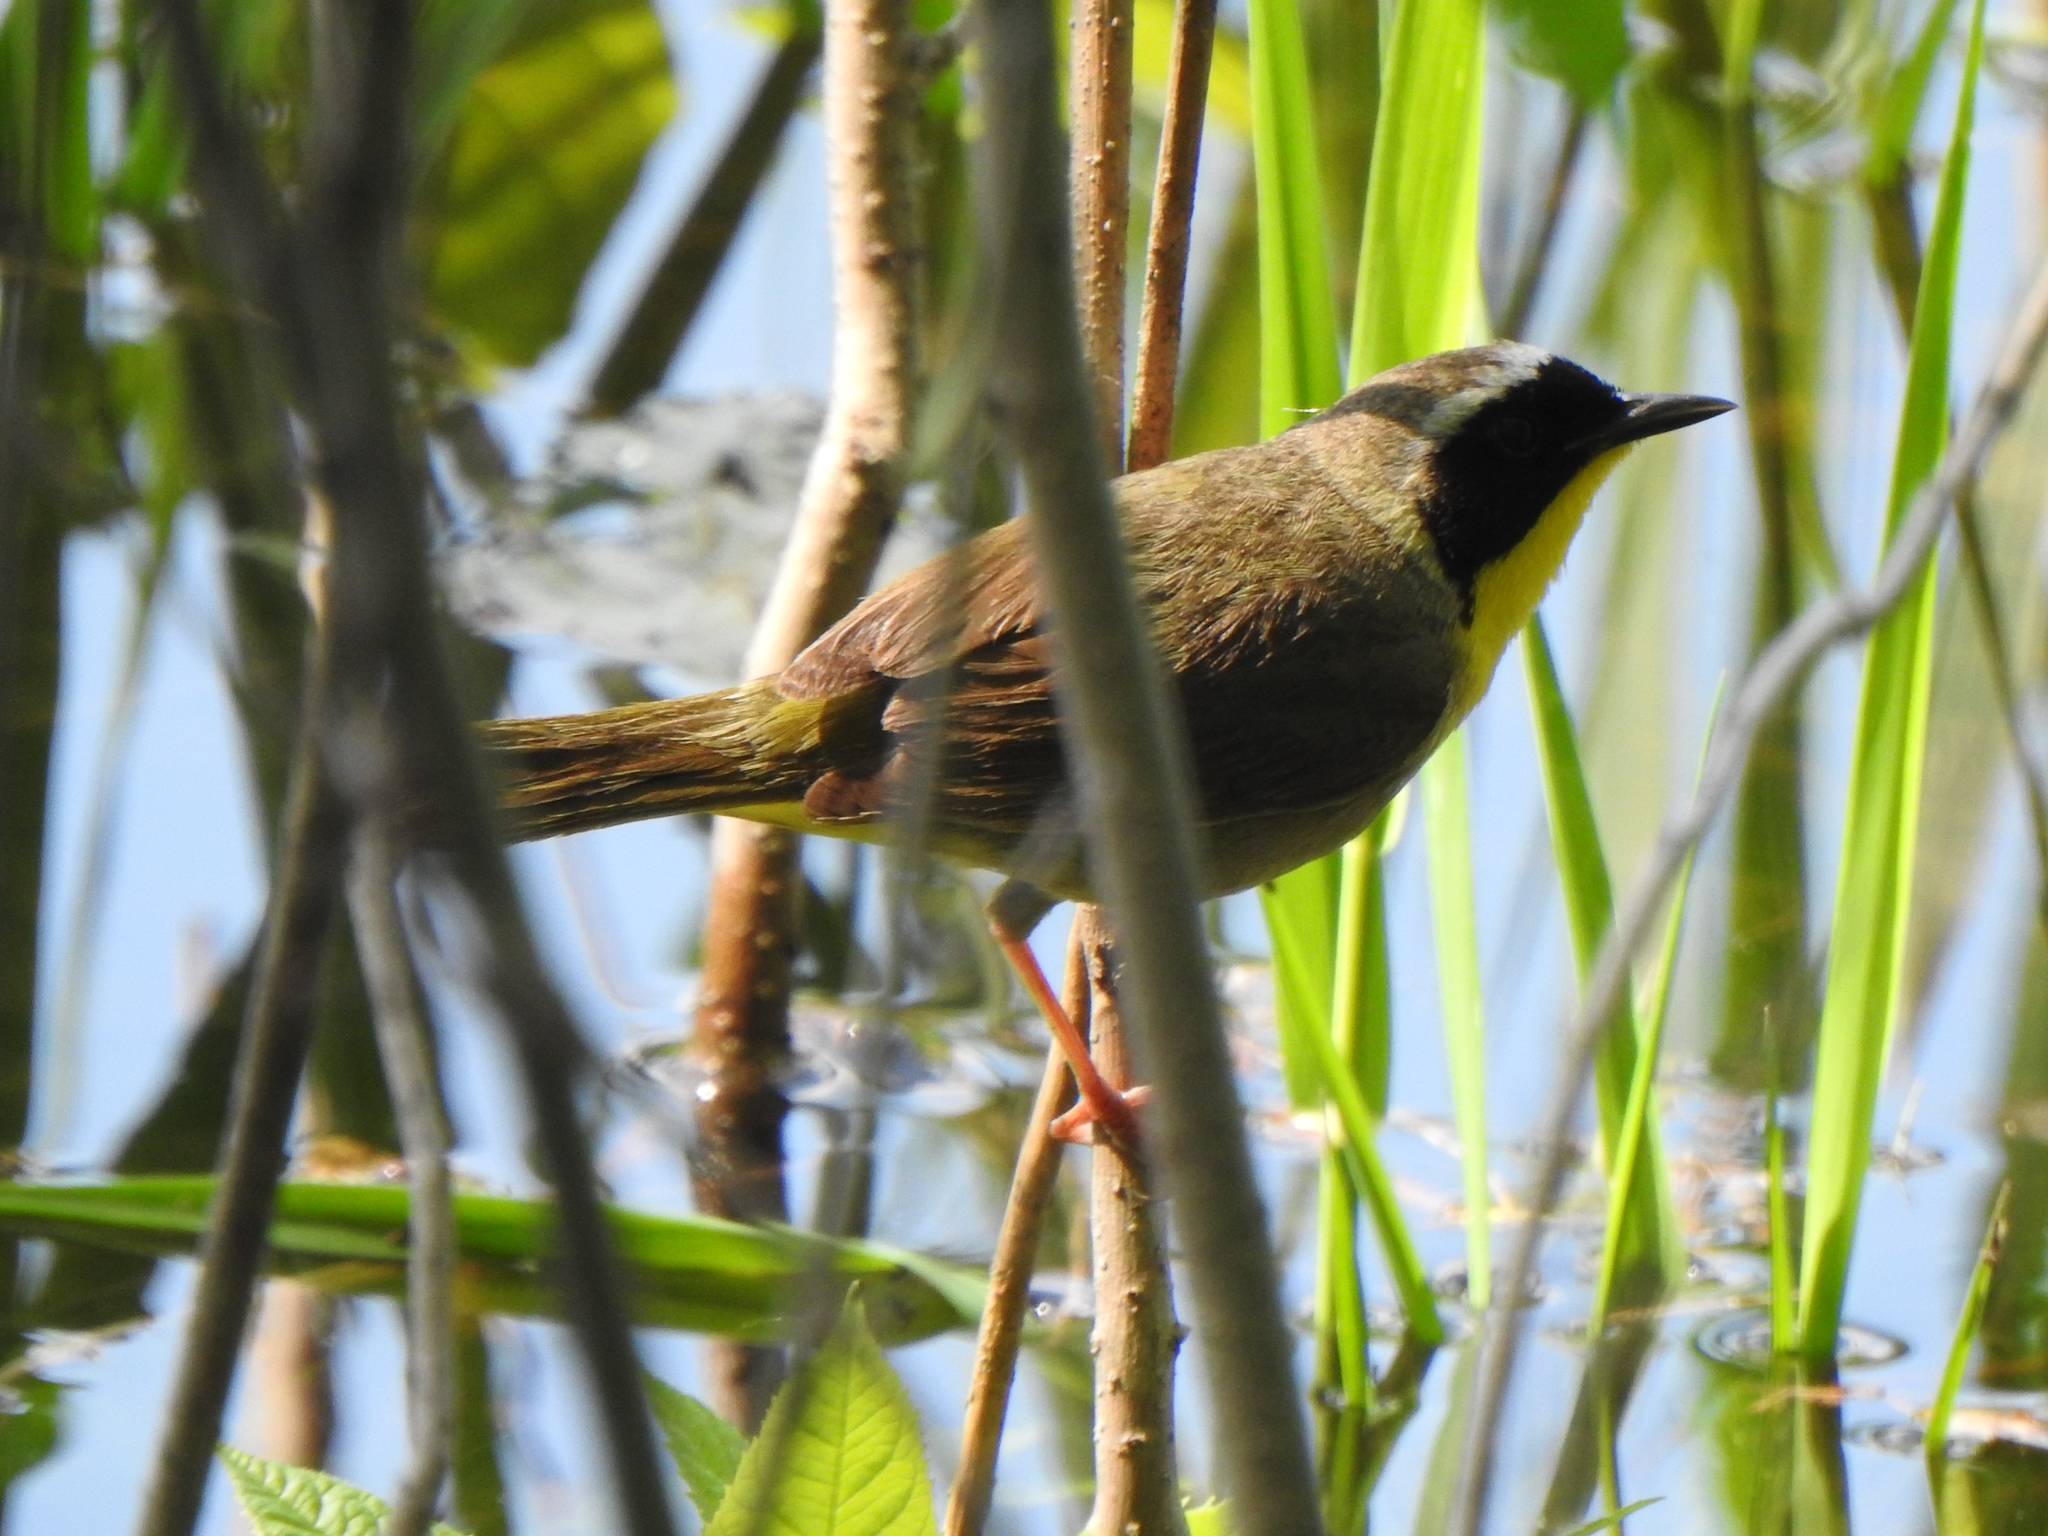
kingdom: Animalia
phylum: Chordata
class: Aves
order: Passeriformes
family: Parulidae
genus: Geothlypis
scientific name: Geothlypis trichas
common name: Common yellowthroat
